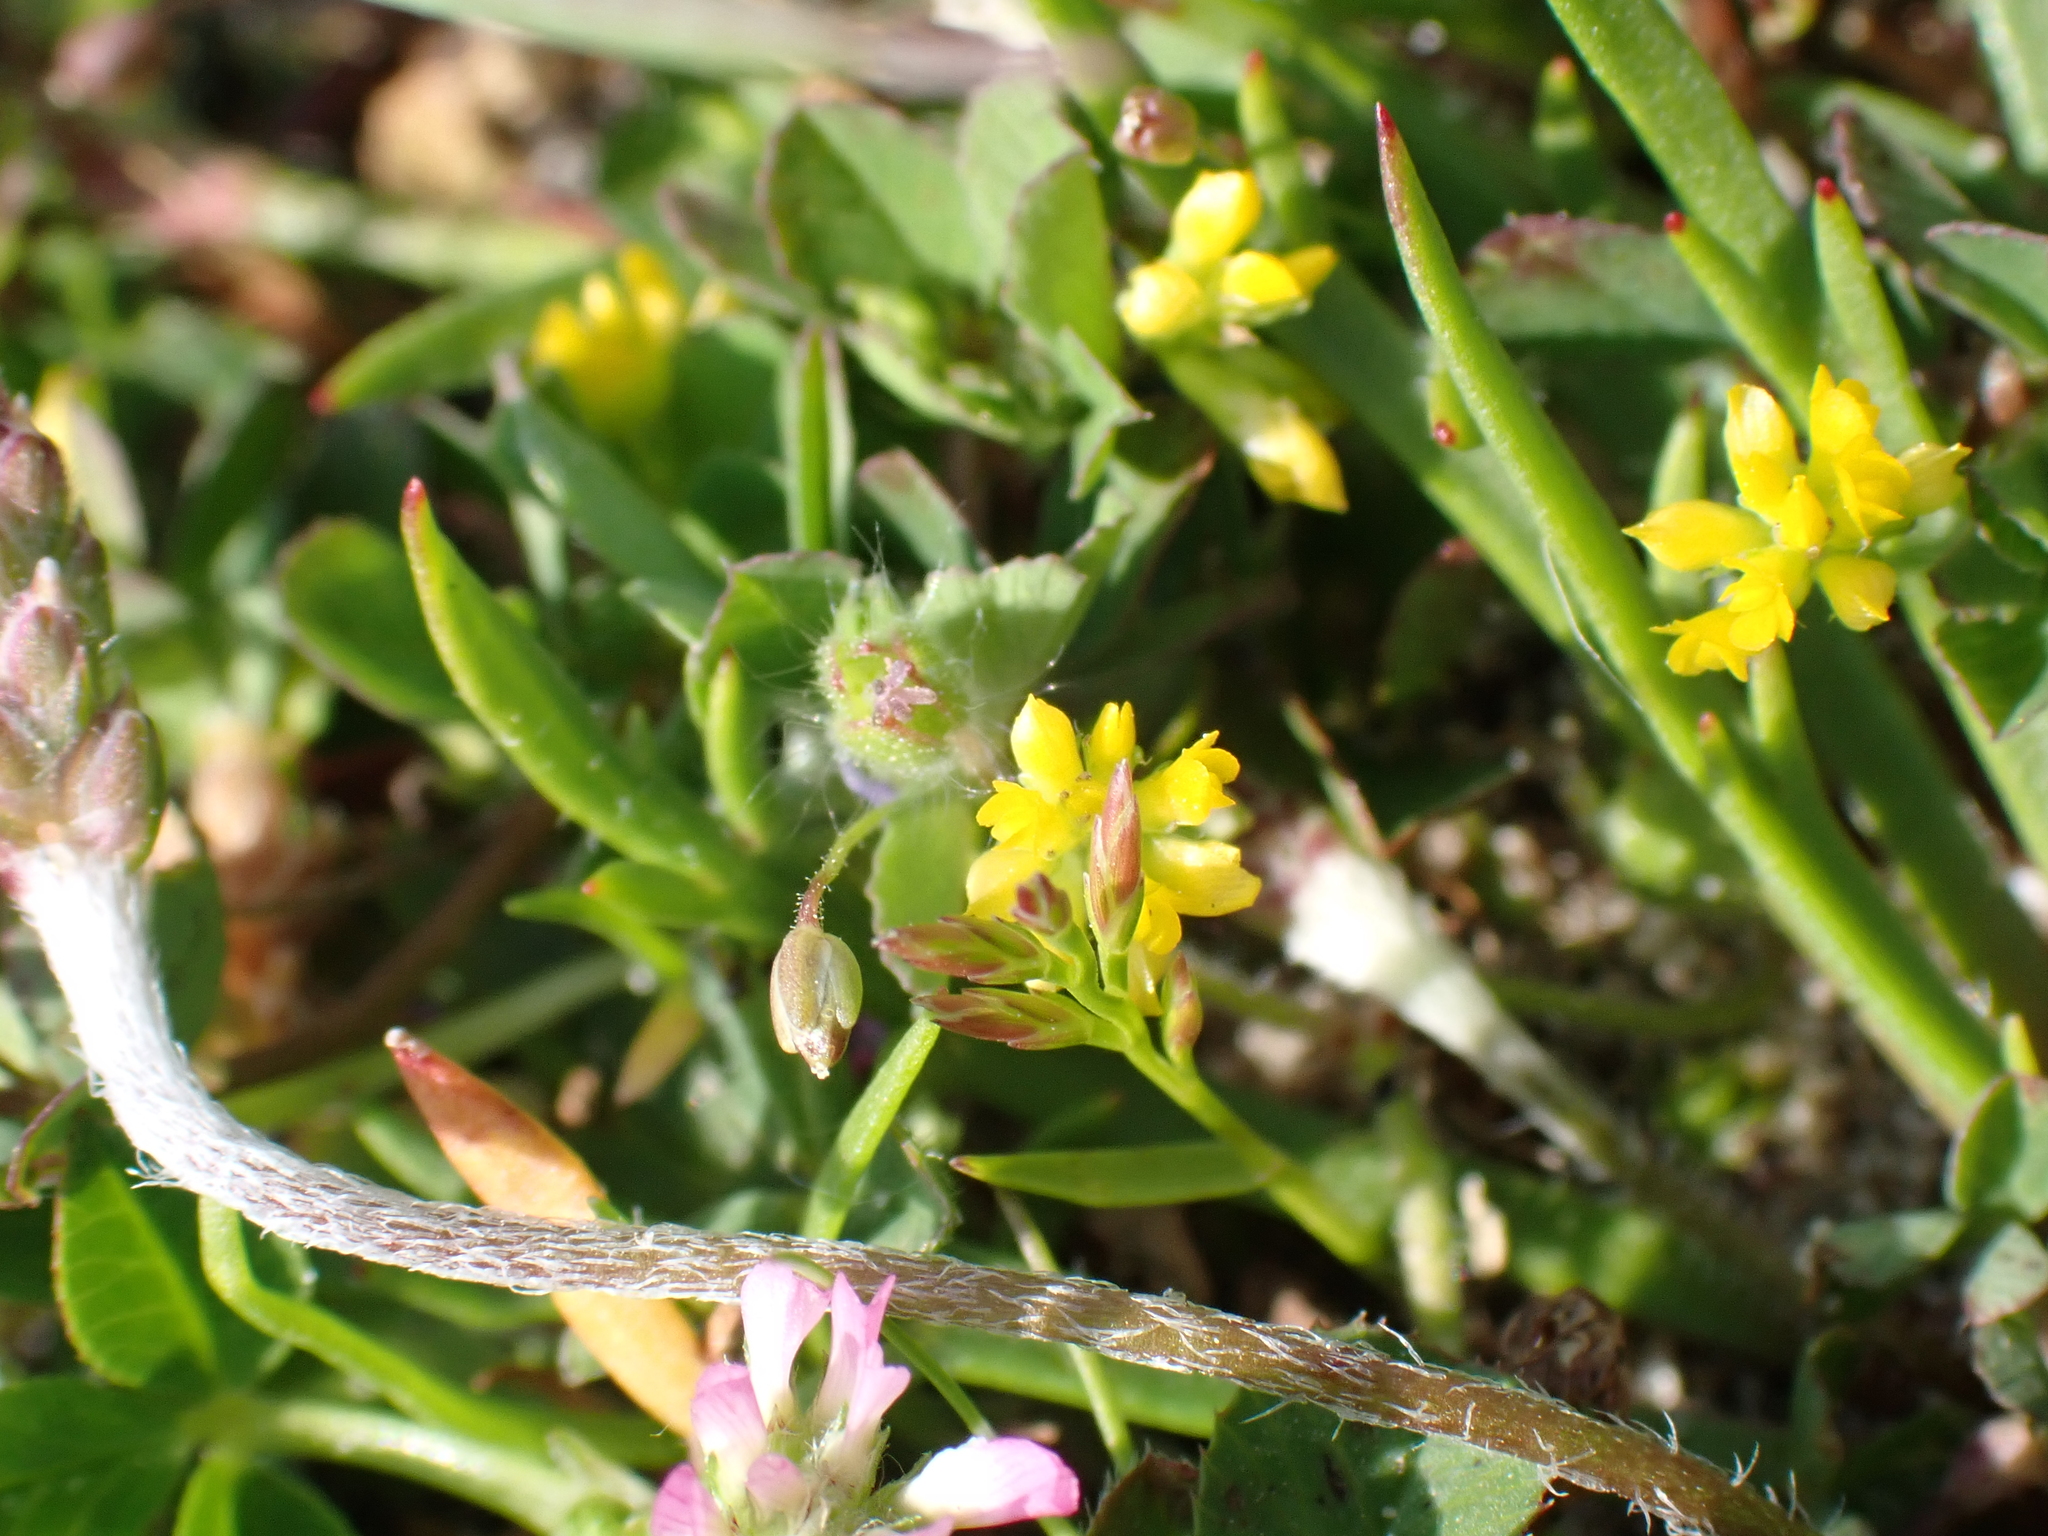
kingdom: Plantae
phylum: Tracheophyta
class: Magnoliopsida
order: Fabales
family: Fabaceae
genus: Trifolium
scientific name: Trifolium dubium
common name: Suckling clover
